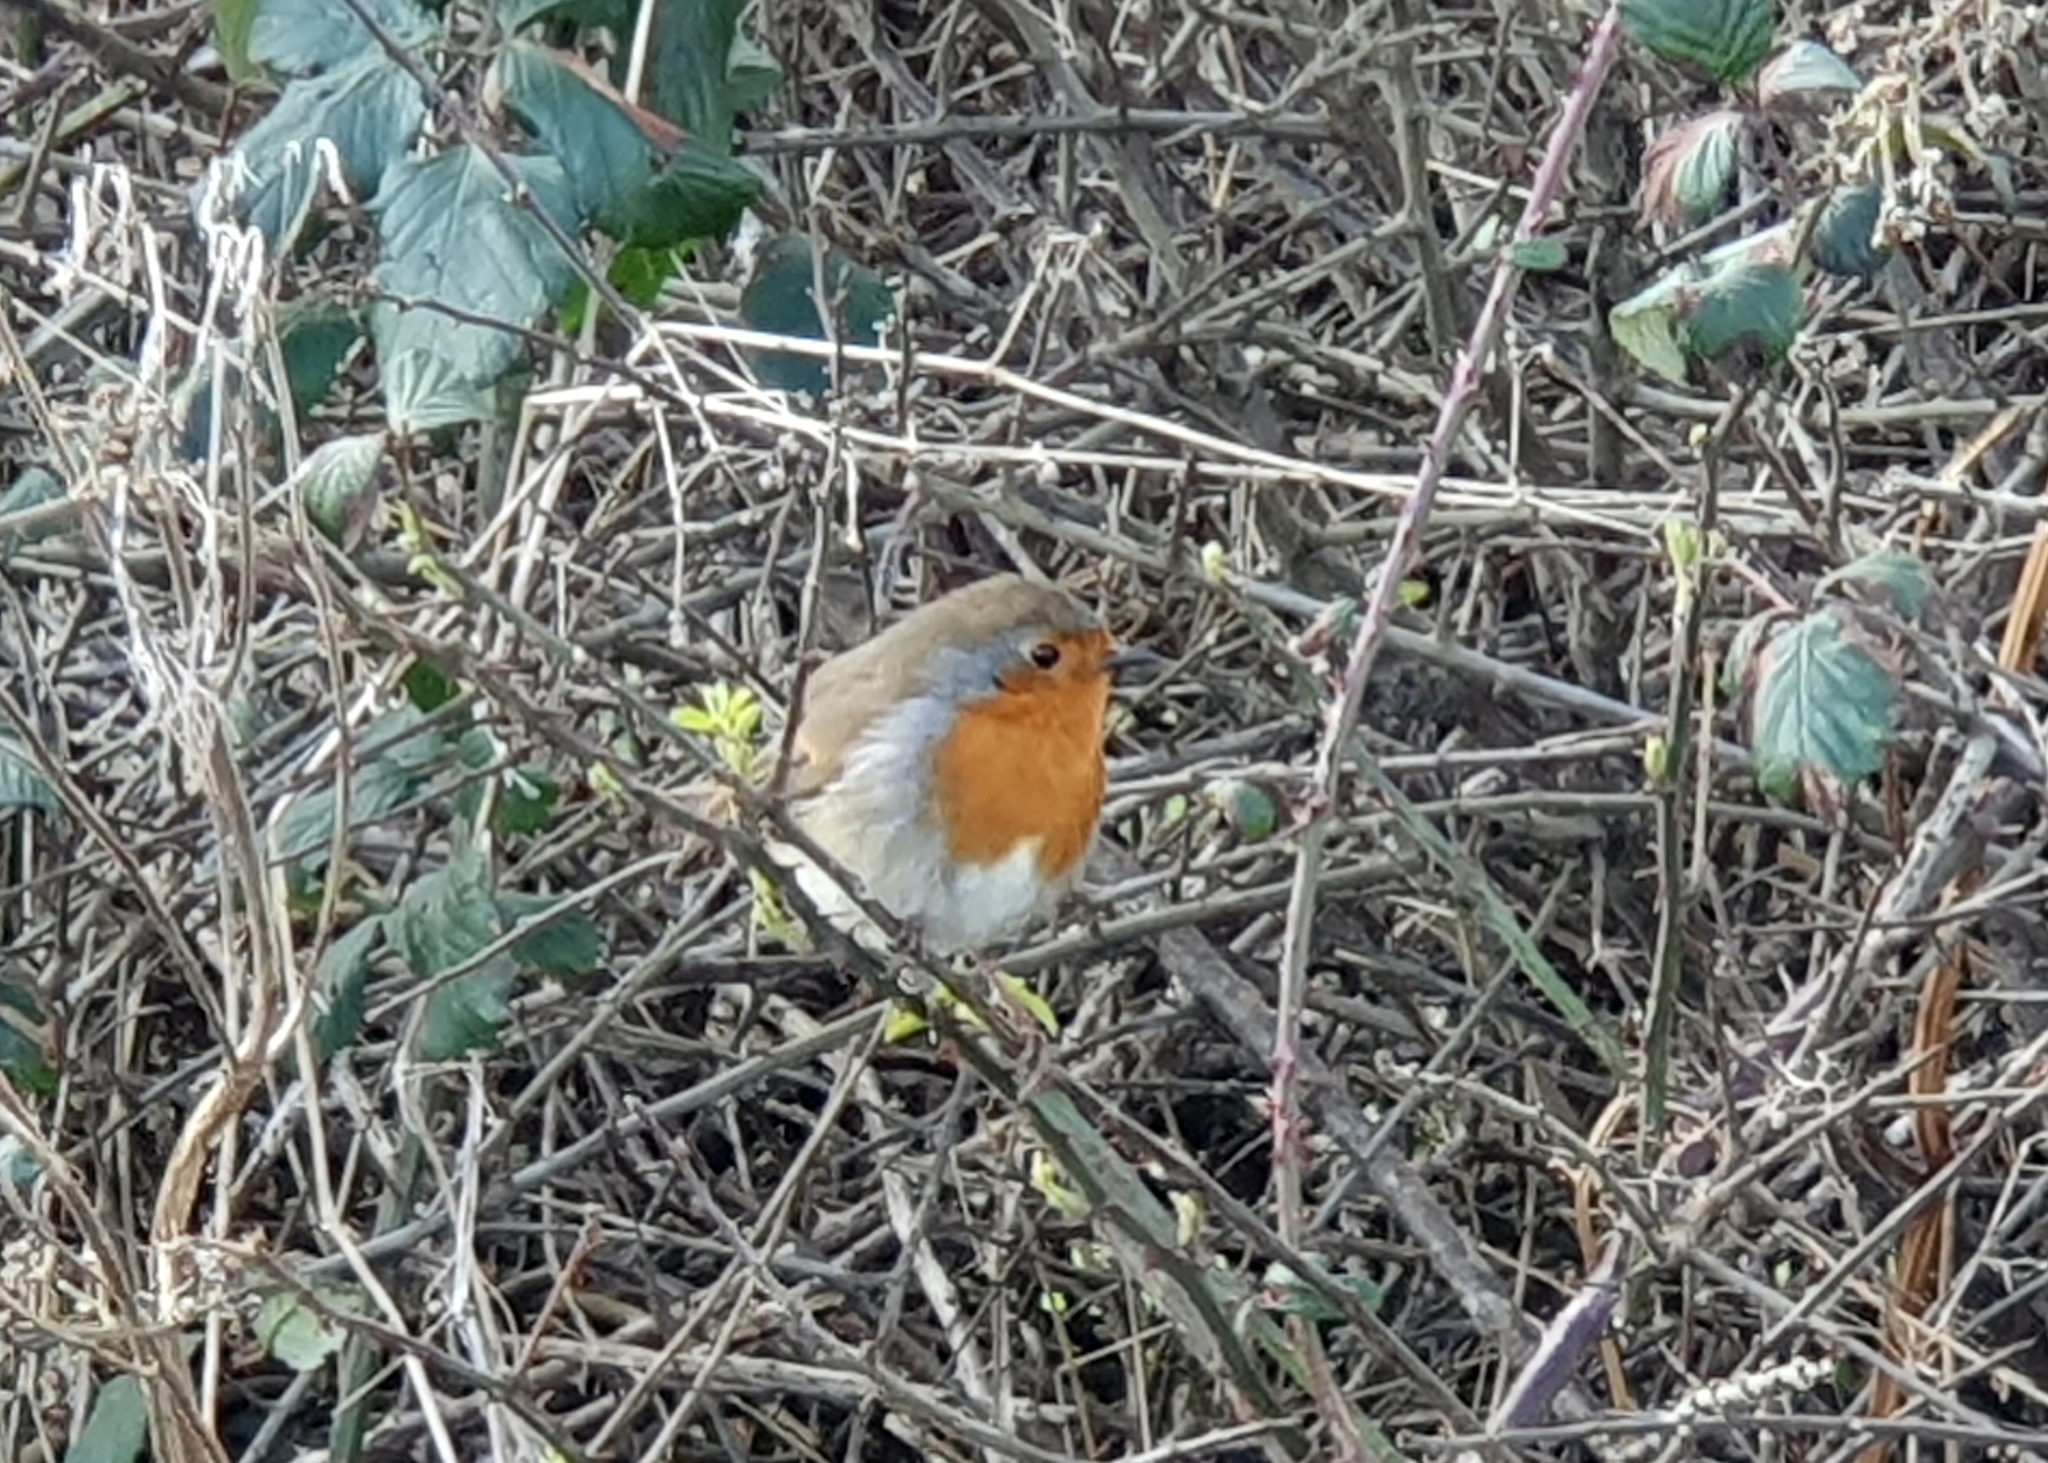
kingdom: Animalia
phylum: Chordata
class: Aves
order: Passeriformes
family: Muscicapidae
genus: Erithacus
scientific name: Erithacus rubecula
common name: European robin
